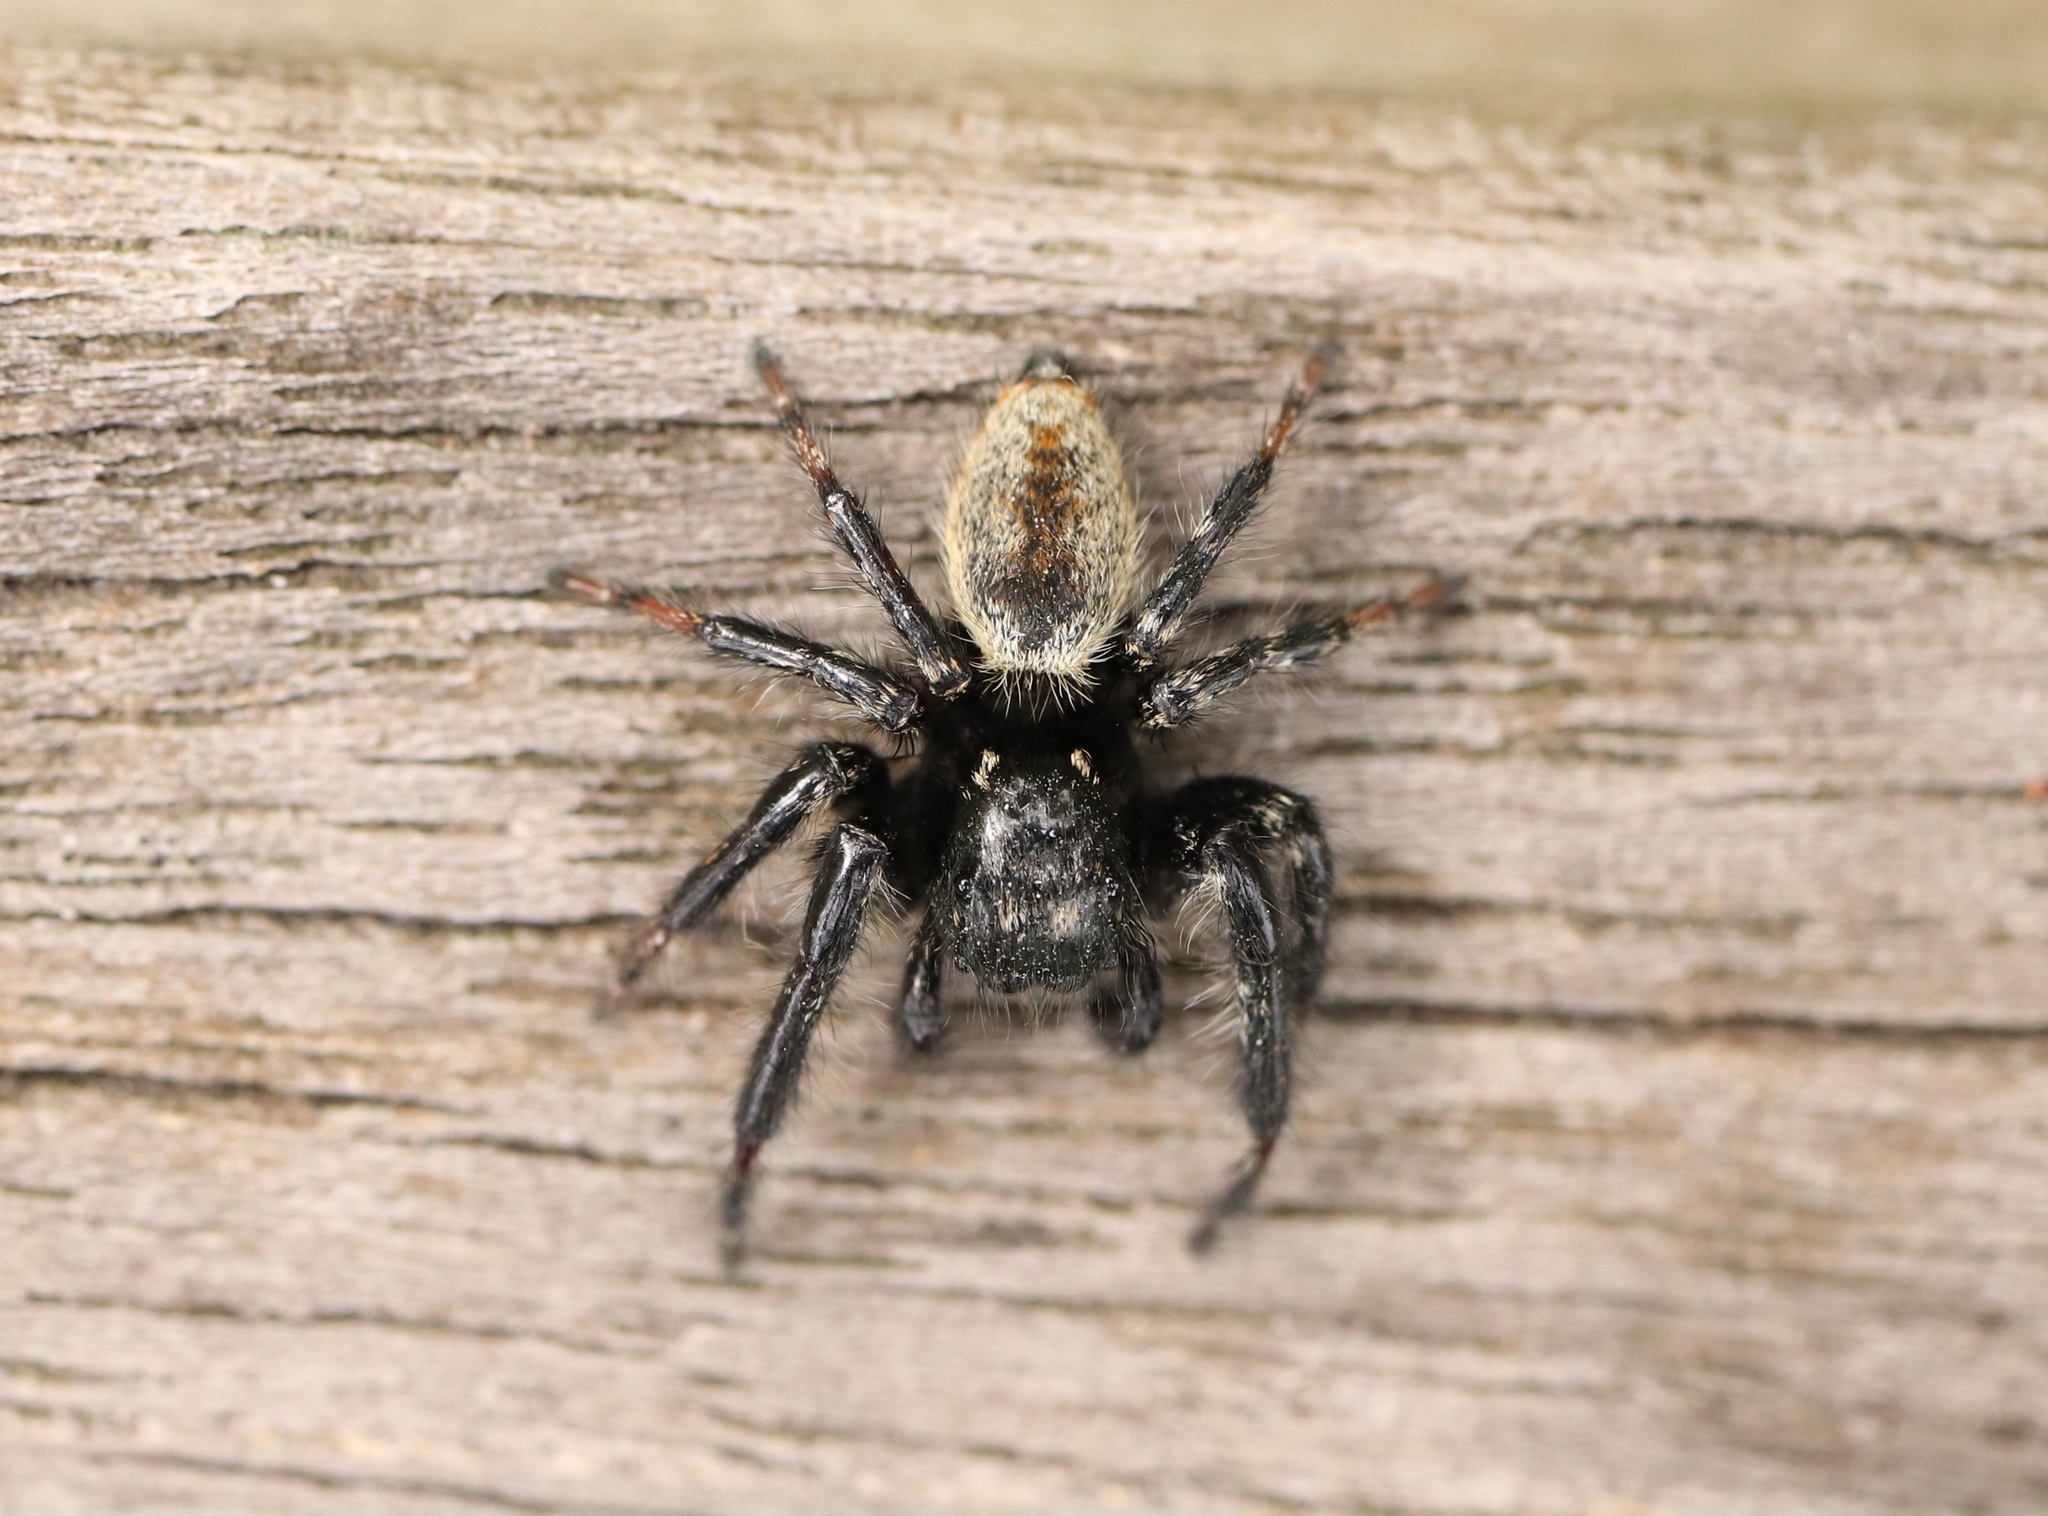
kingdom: Animalia
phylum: Arthropoda
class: Arachnida
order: Araneae
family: Salticidae
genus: Carrhotus
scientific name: Carrhotus xanthogramma
